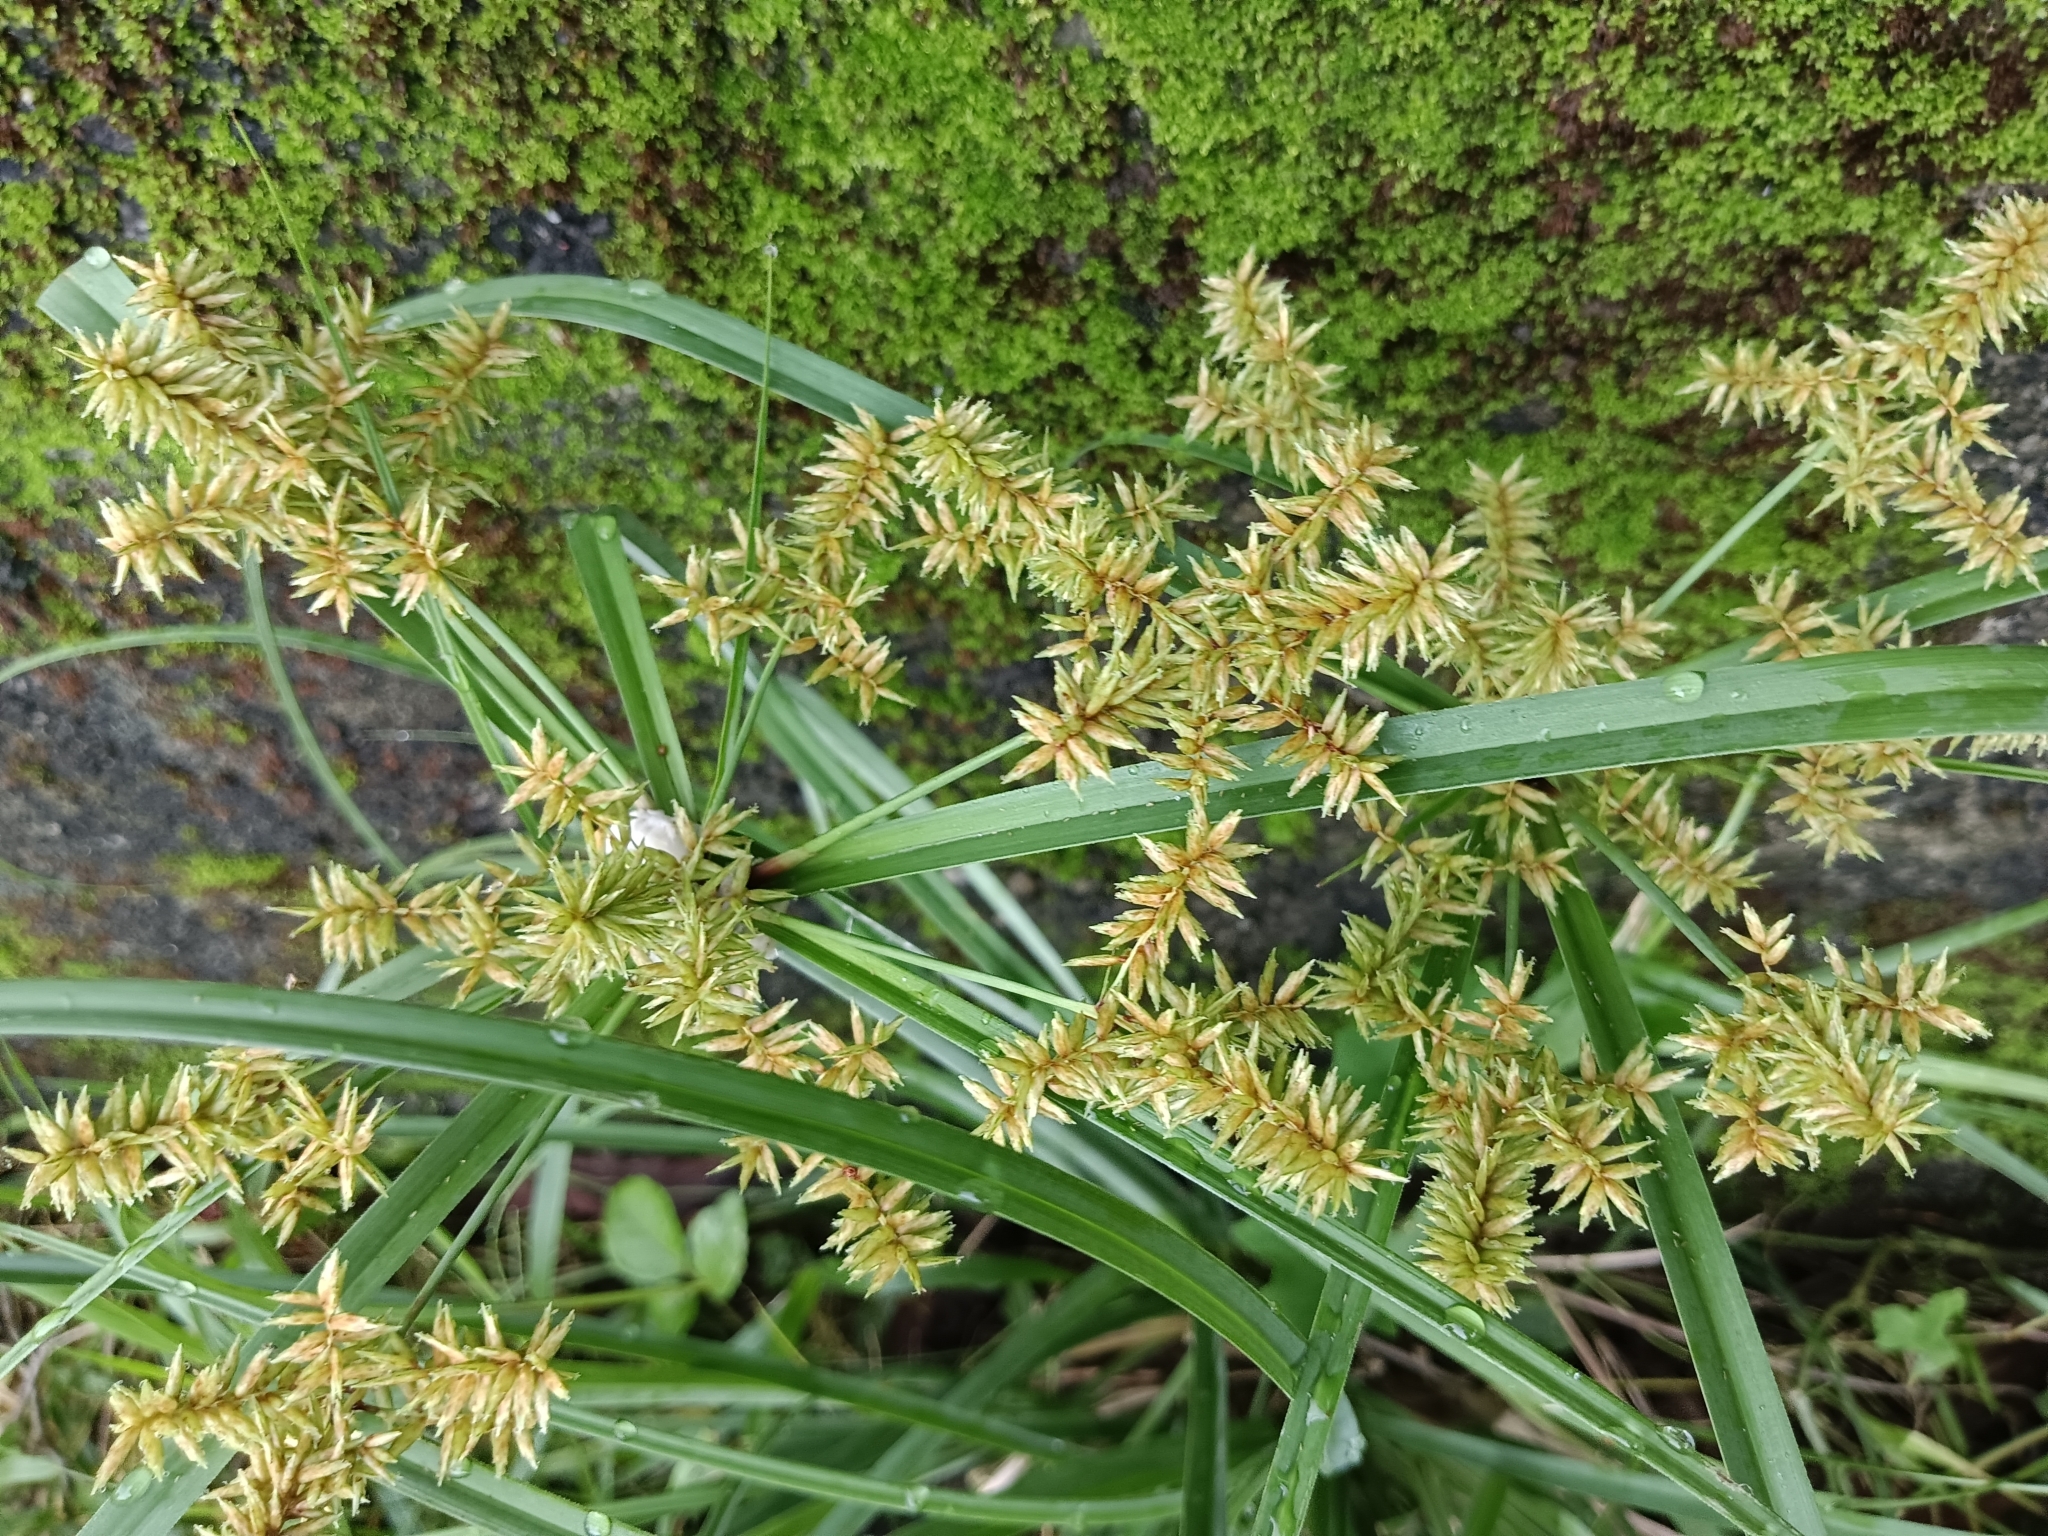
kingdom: Plantae
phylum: Tracheophyta
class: Liliopsida
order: Poales
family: Cyperaceae
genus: Cyperus
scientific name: Cyperus javanicus
